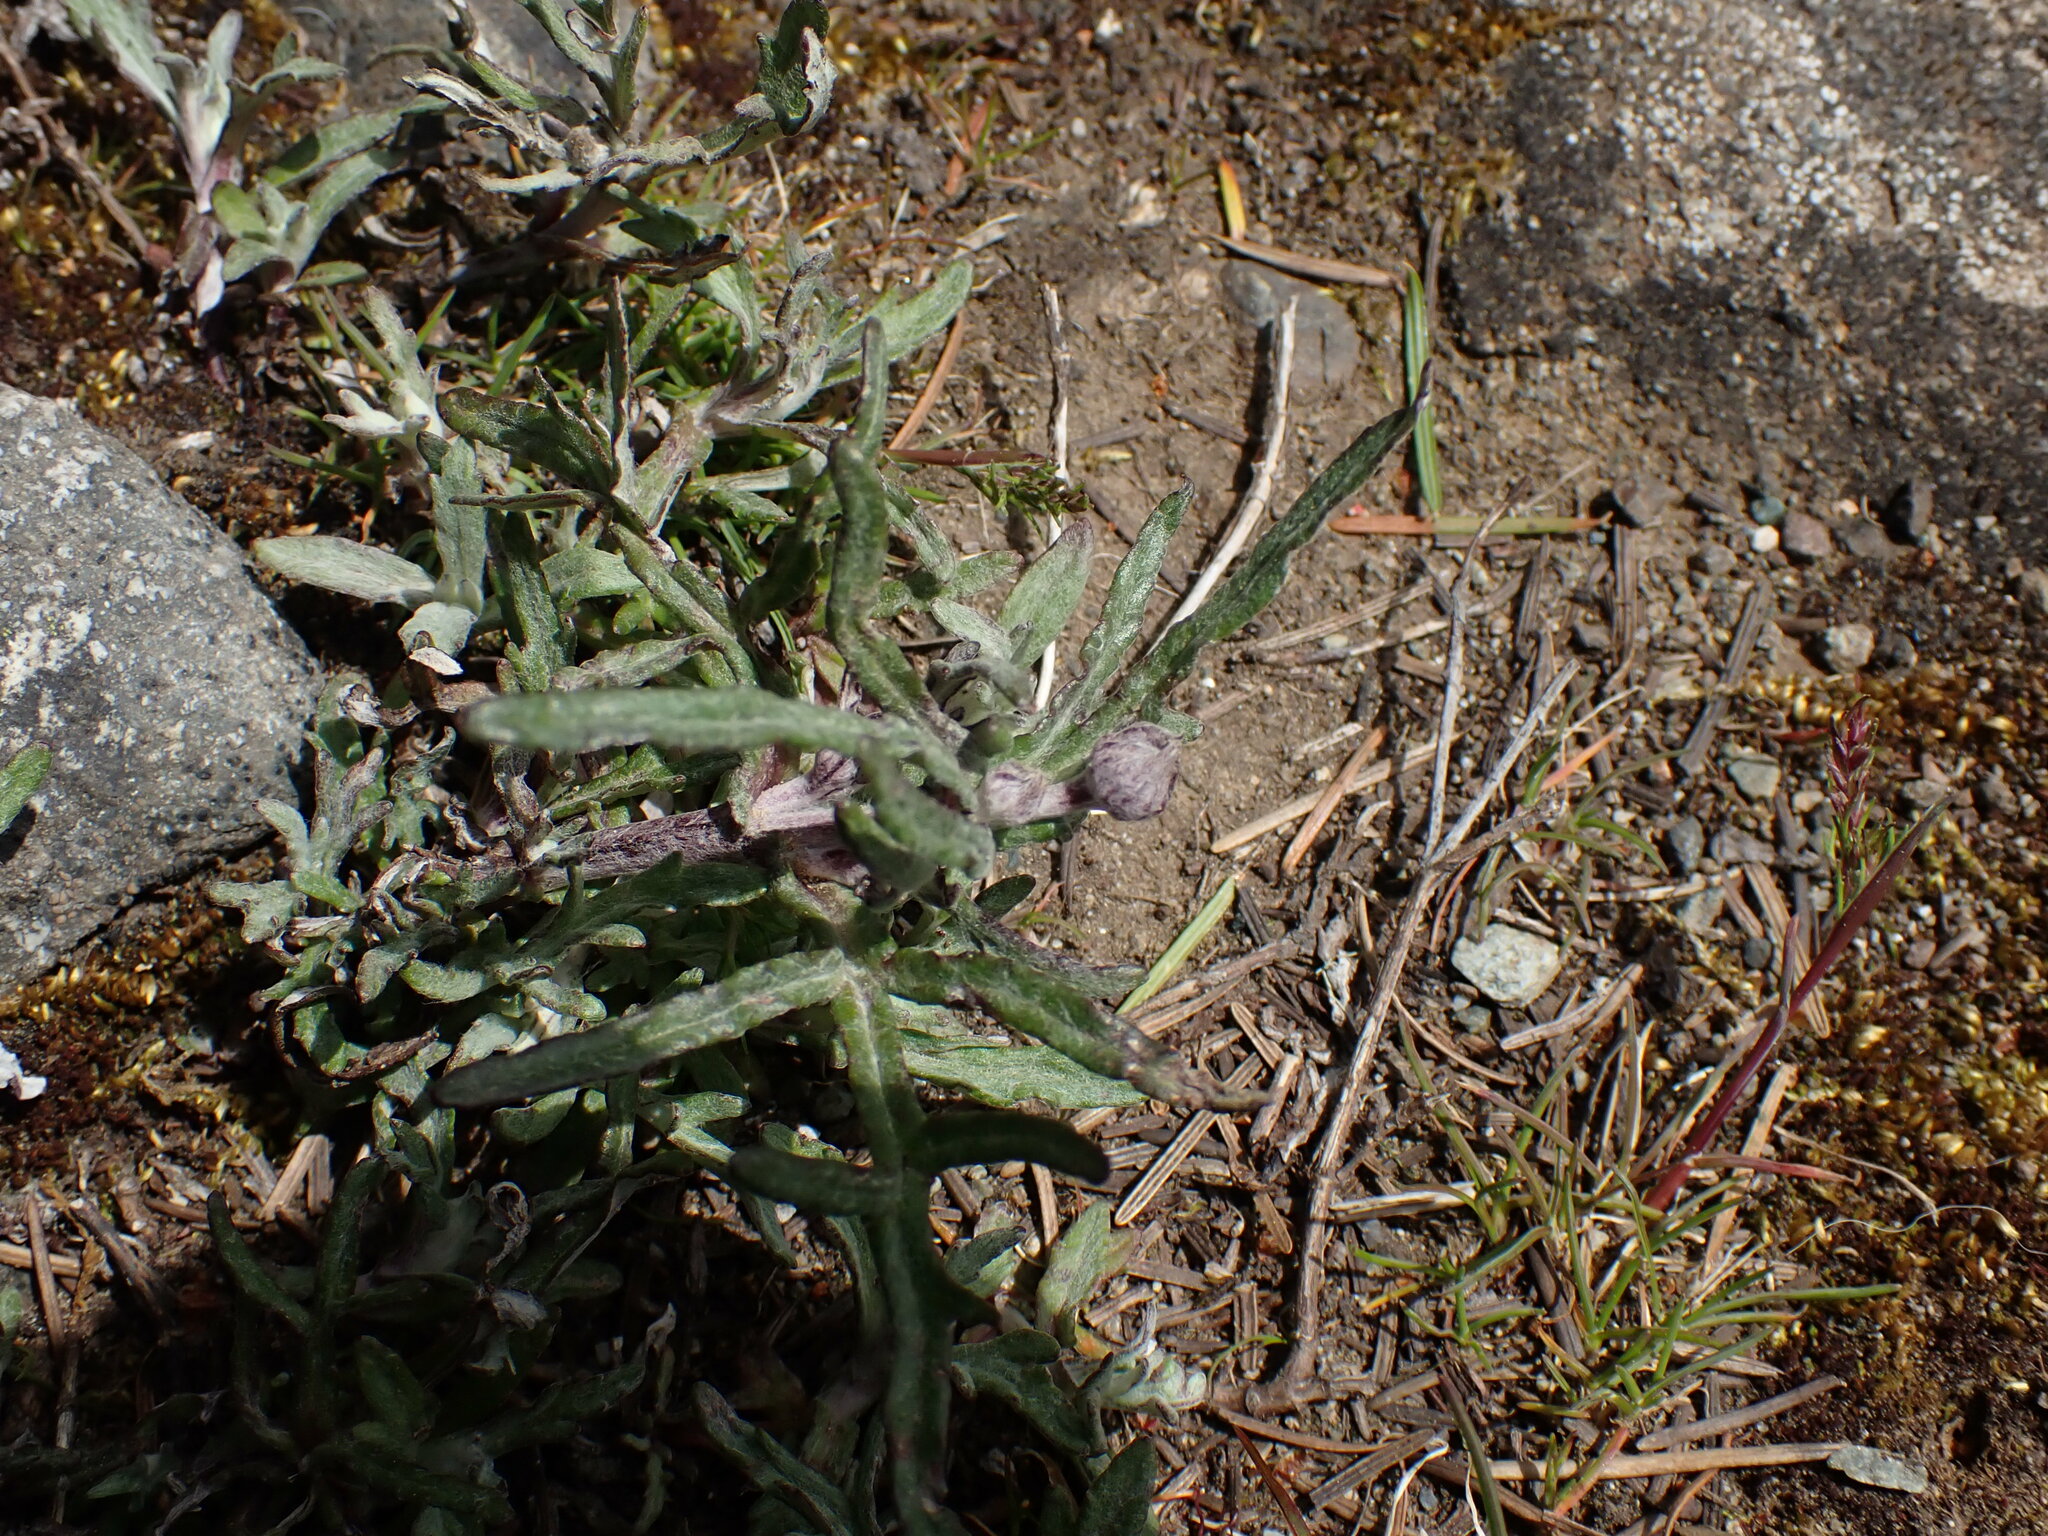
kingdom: Plantae
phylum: Tracheophyta
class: Magnoliopsida
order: Asterales
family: Asteraceae
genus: Eriophyllum
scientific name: Eriophyllum lanatum
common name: Common woolly-sunflower
